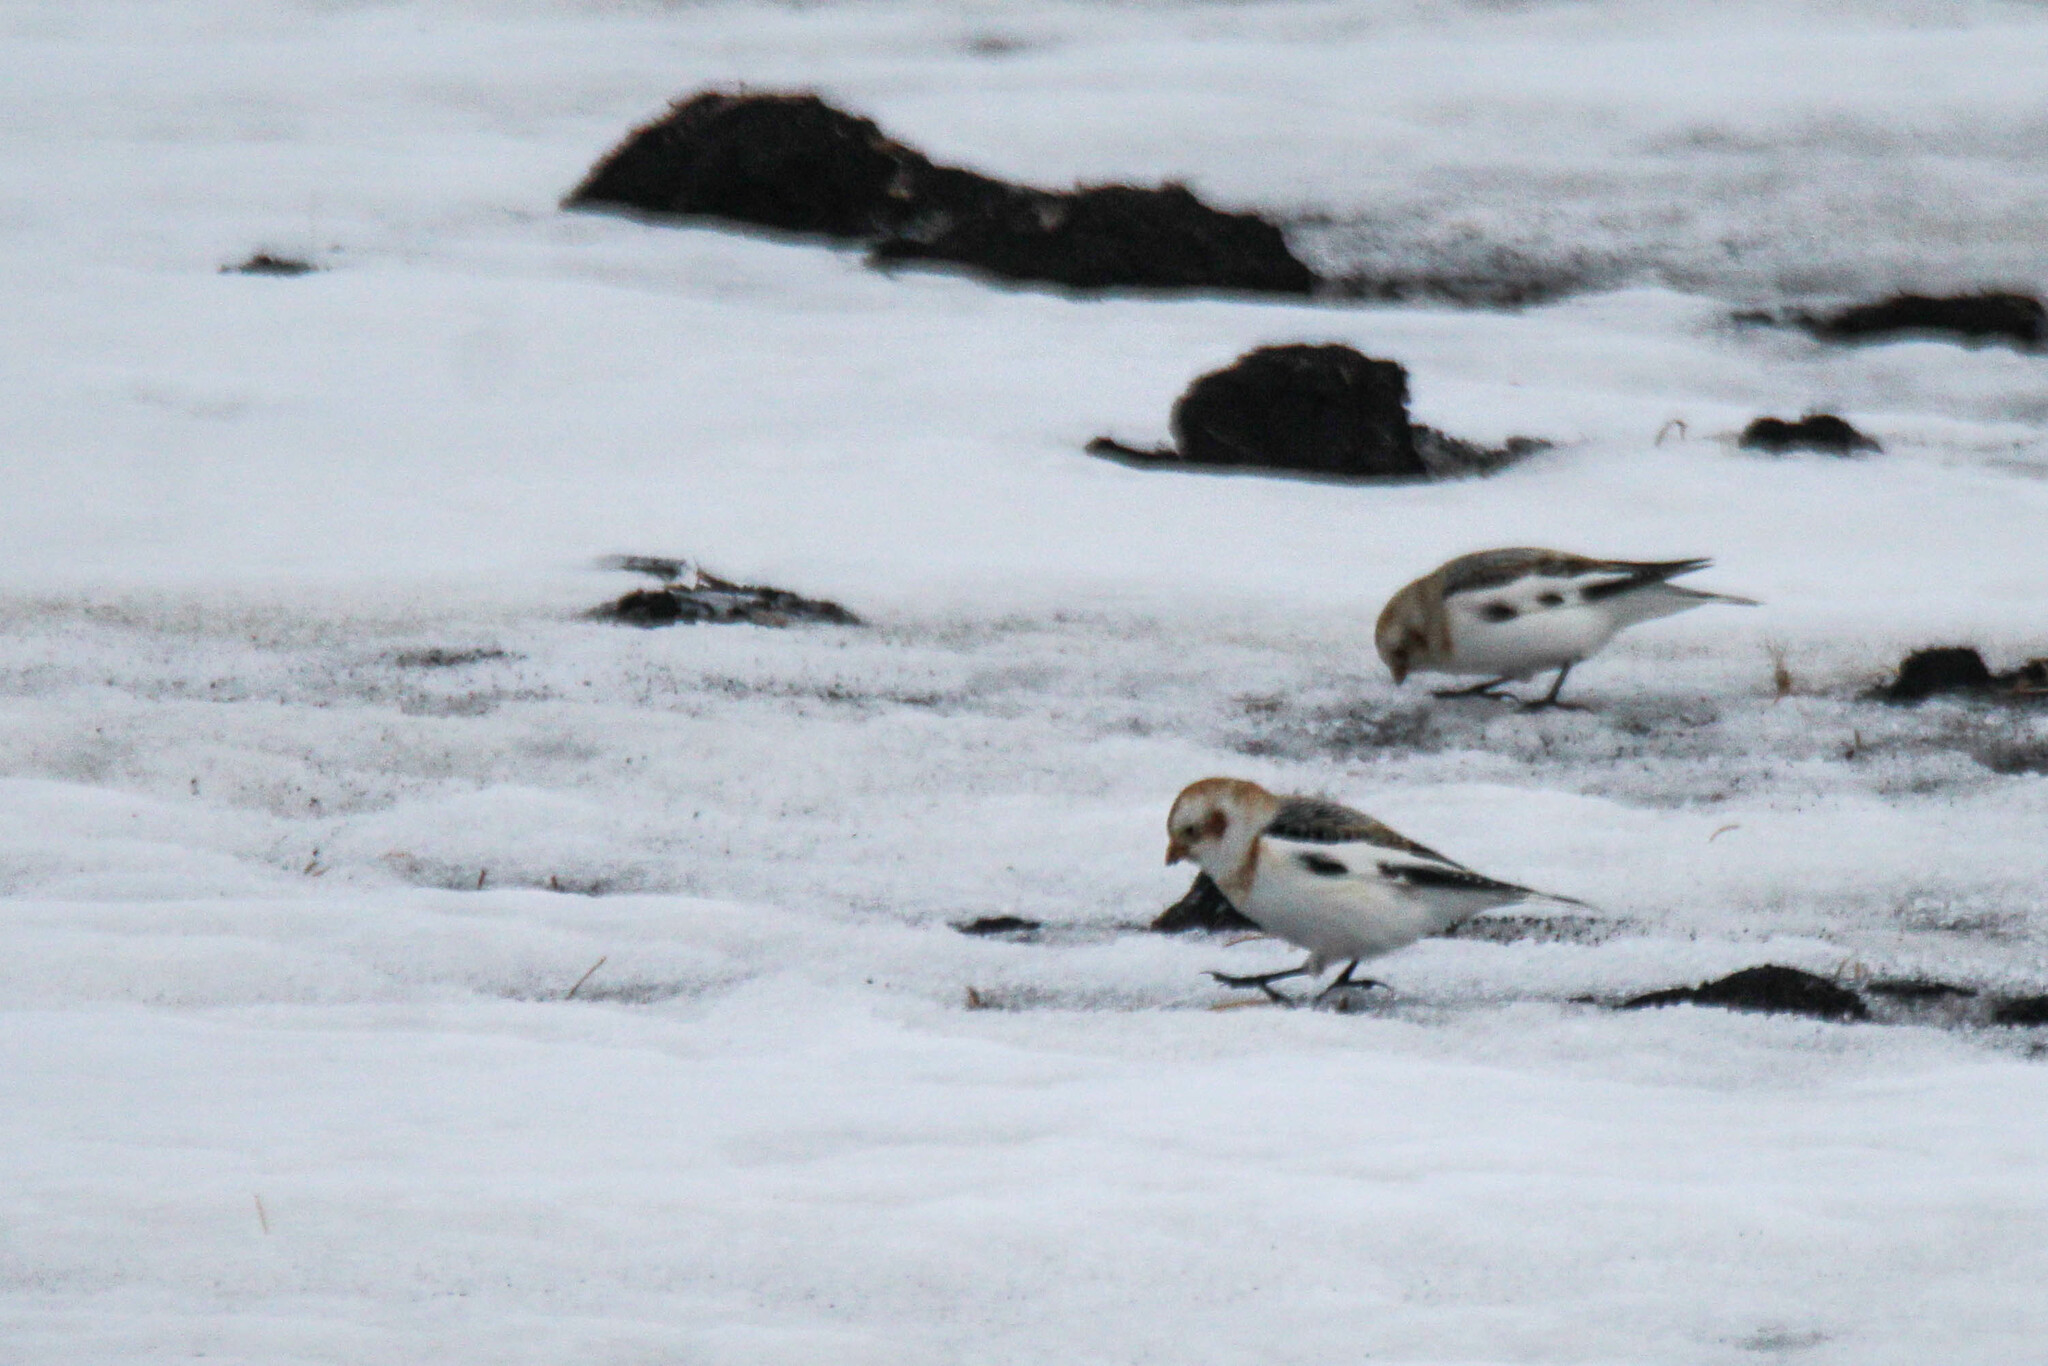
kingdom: Animalia
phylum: Chordata
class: Aves
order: Passeriformes
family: Calcariidae
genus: Plectrophenax
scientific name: Plectrophenax nivalis
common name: Snow bunting
